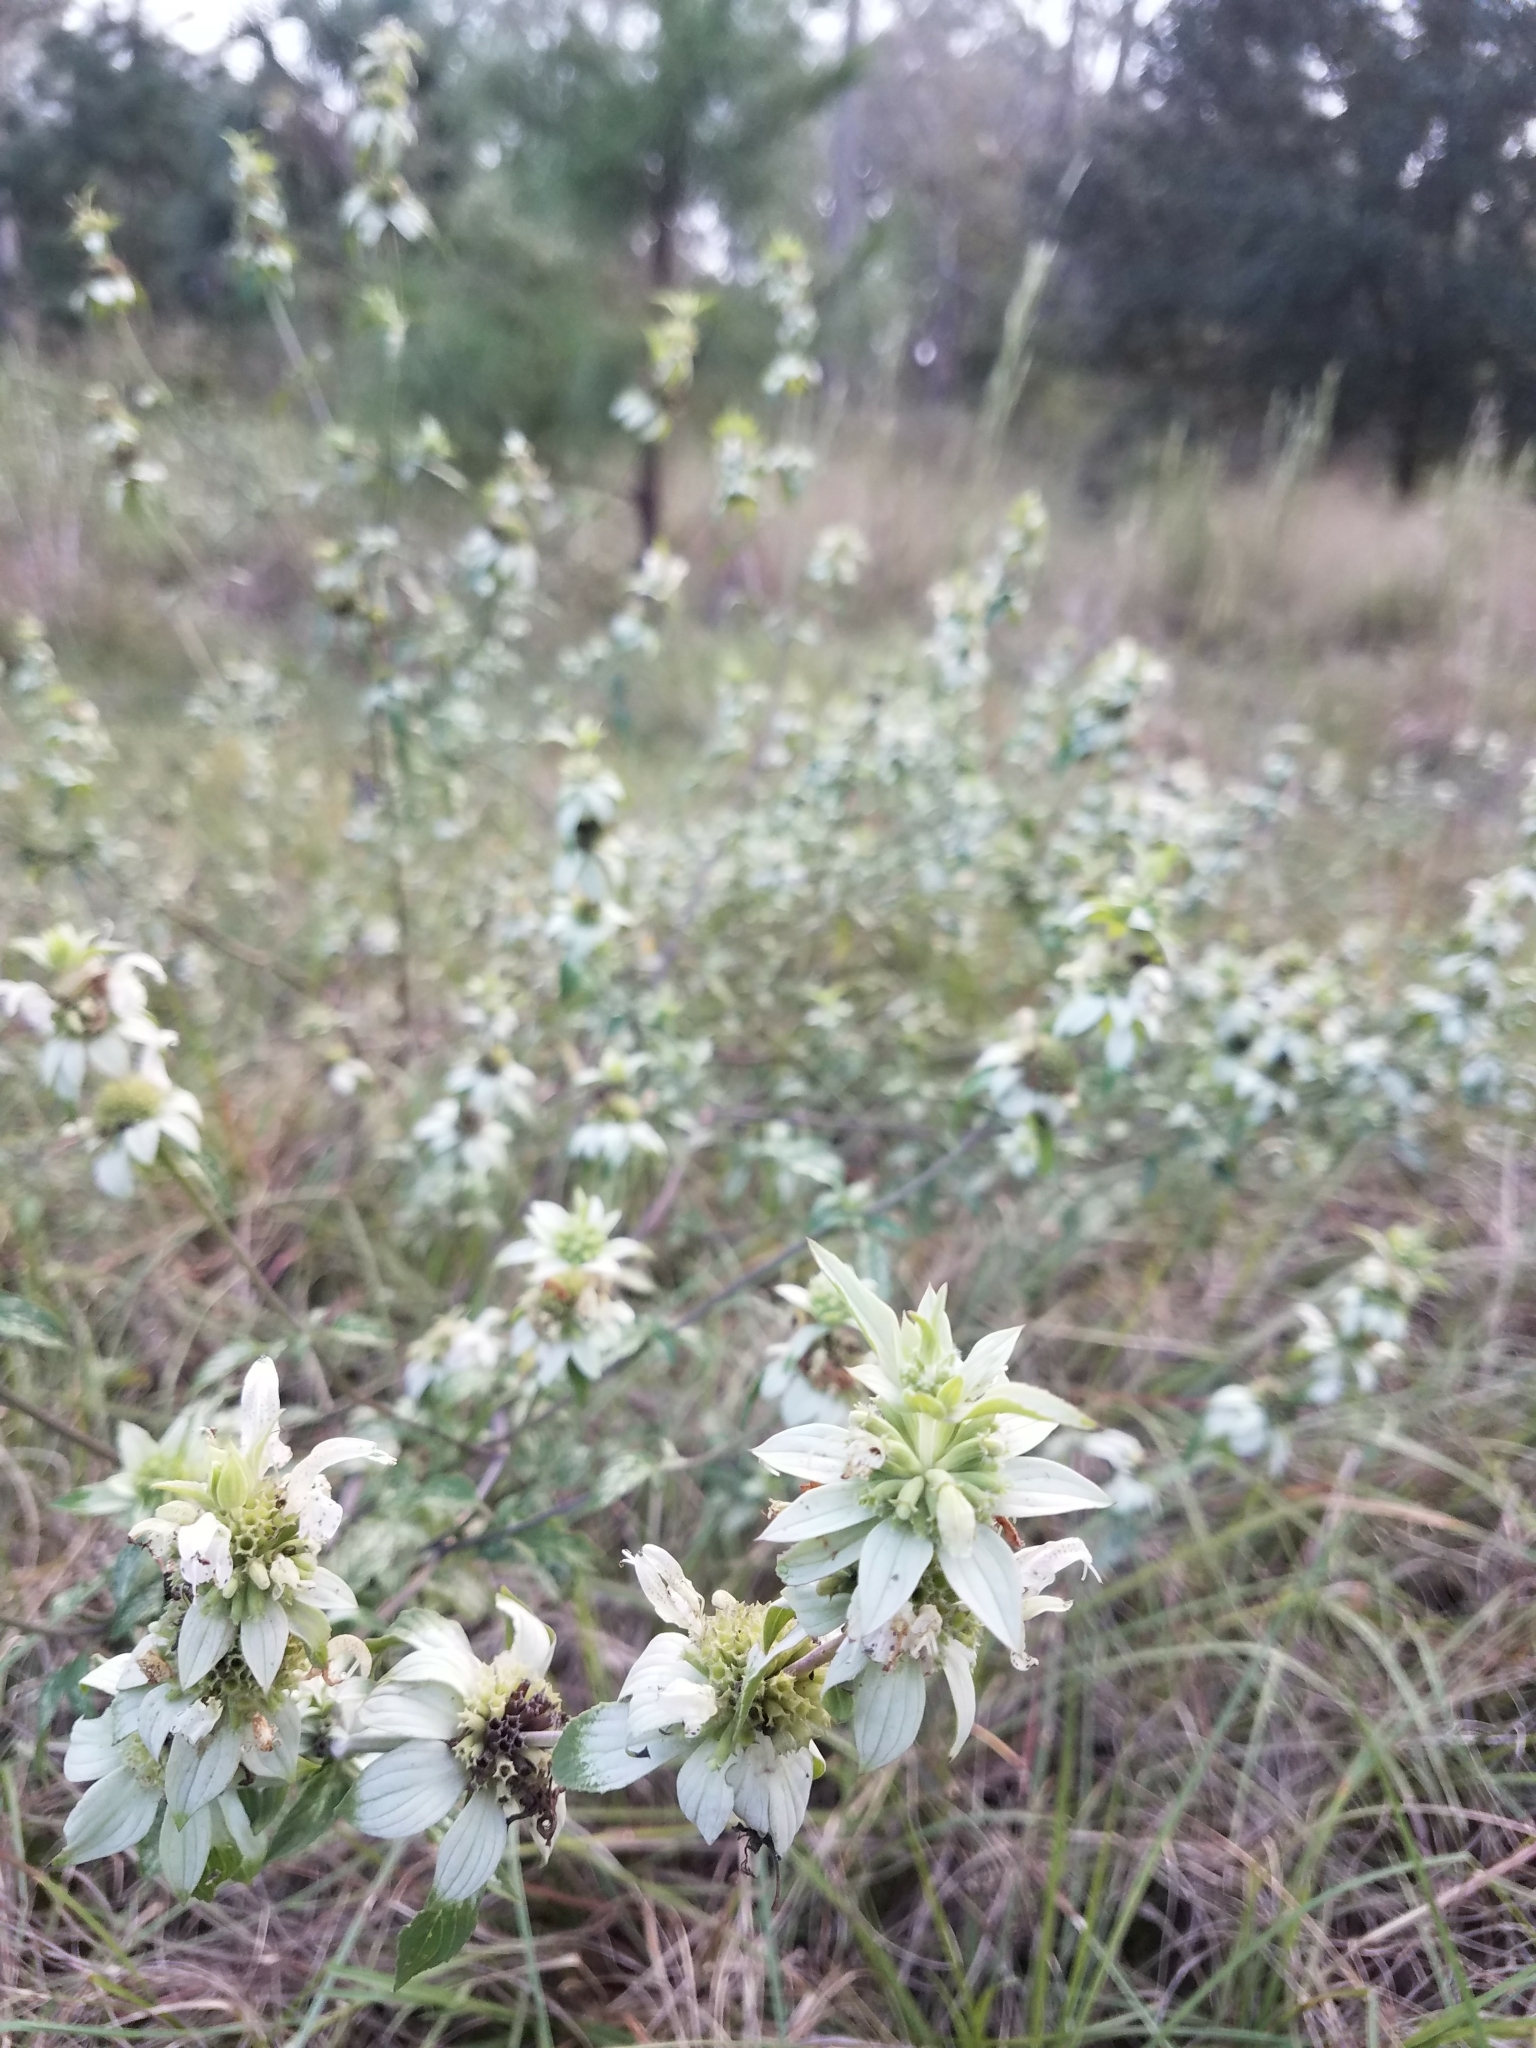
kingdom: Plantae
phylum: Tracheophyta
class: Magnoliopsida
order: Lamiales
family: Lamiaceae
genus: Monarda
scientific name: Monarda punctata
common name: Dotted monarda
